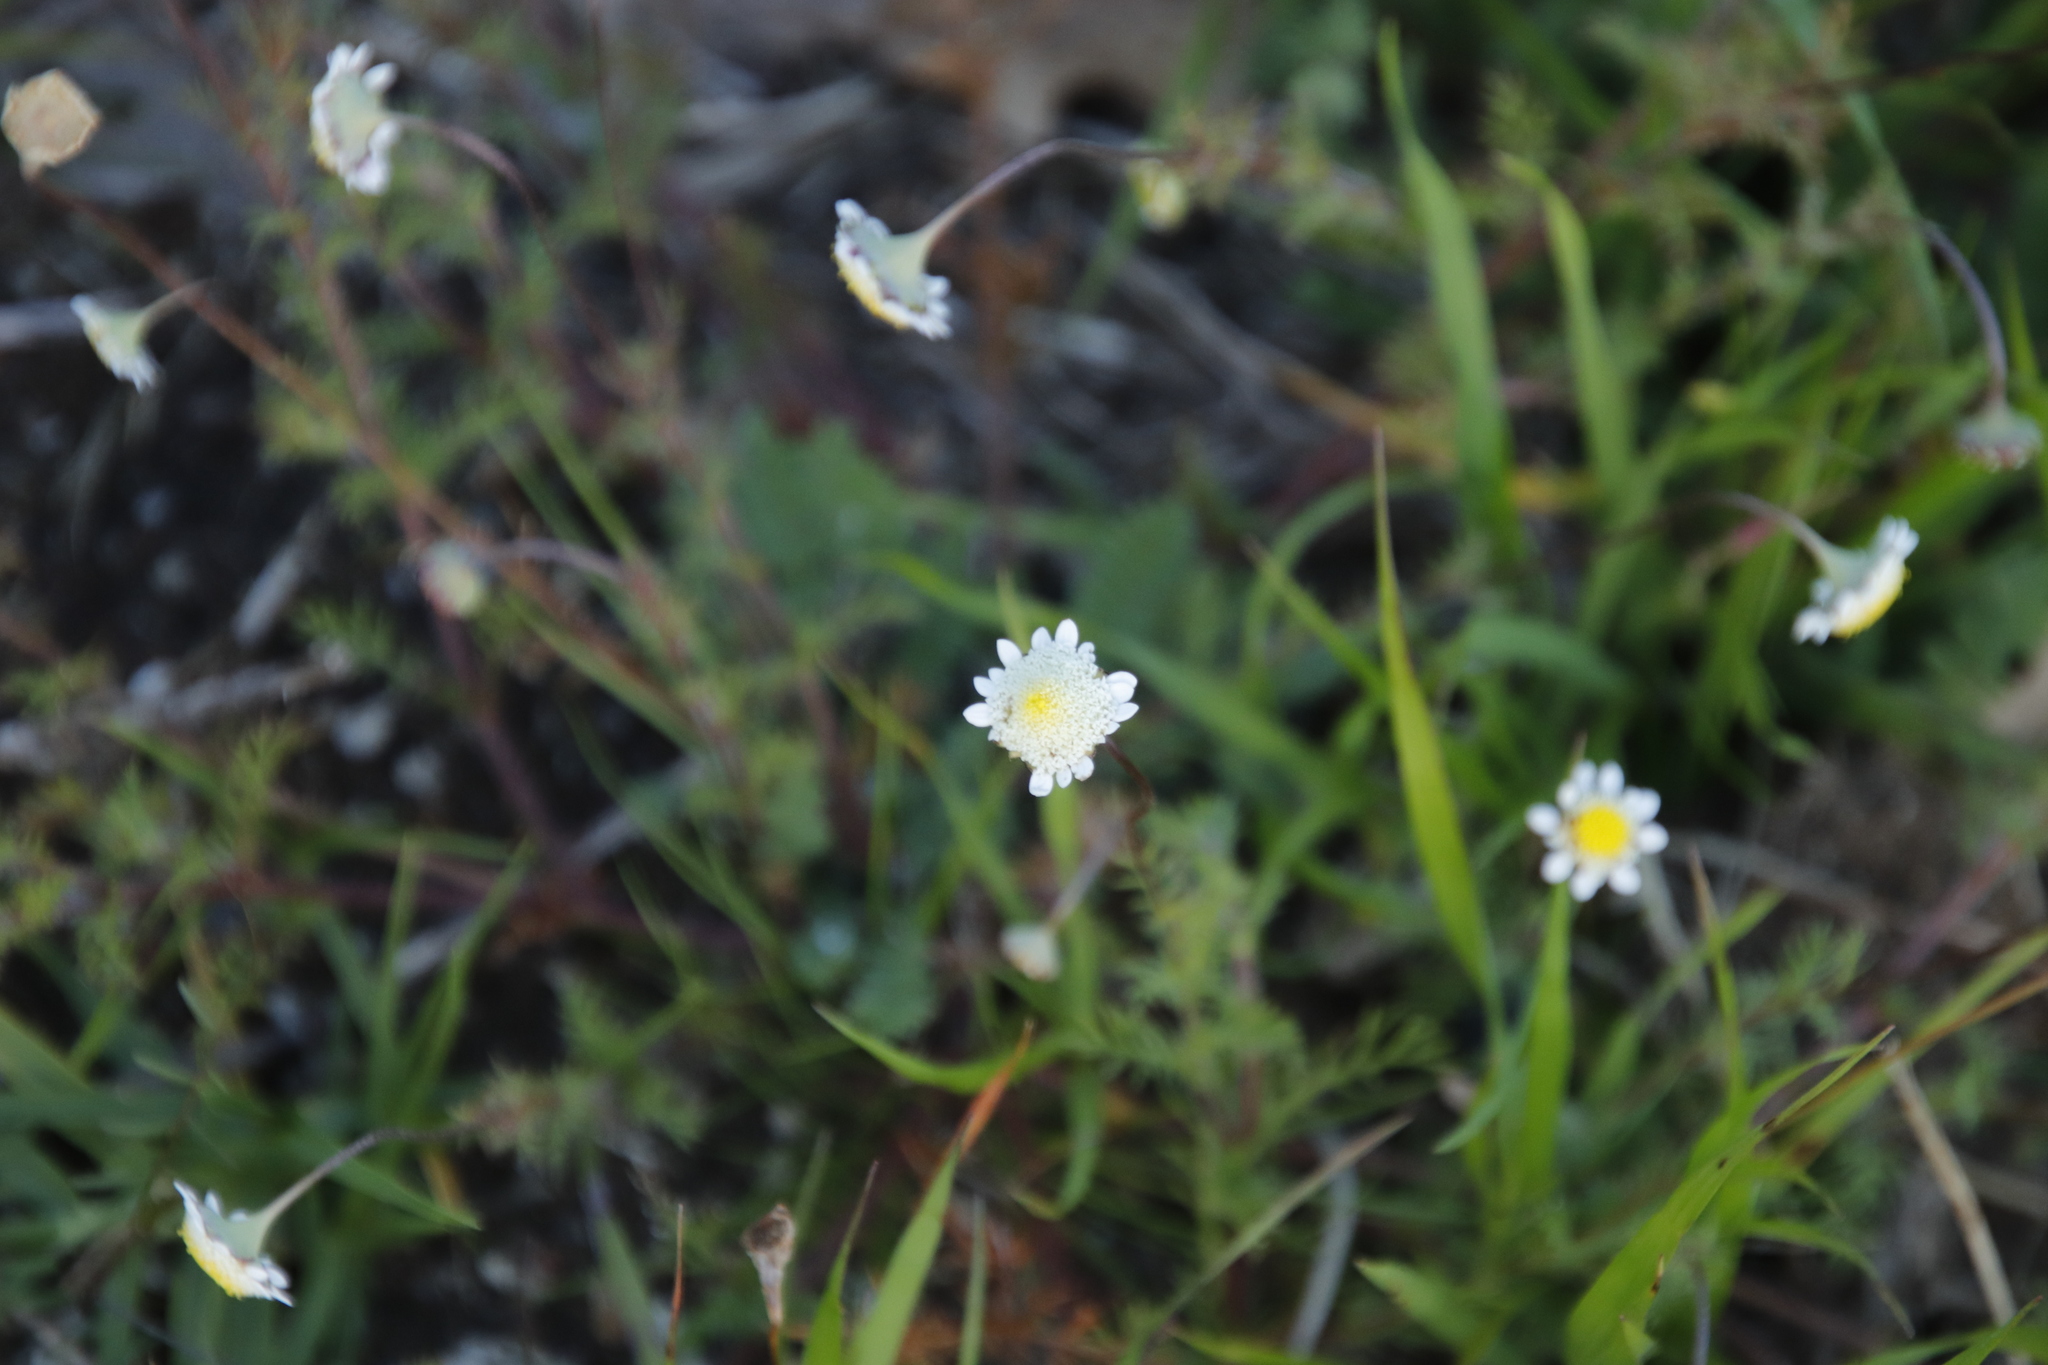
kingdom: Plantae
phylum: Tracheophyta
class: Magnoliopsida
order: Asterales
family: Asteraceae
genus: Cotula
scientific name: Cotula turbinata
